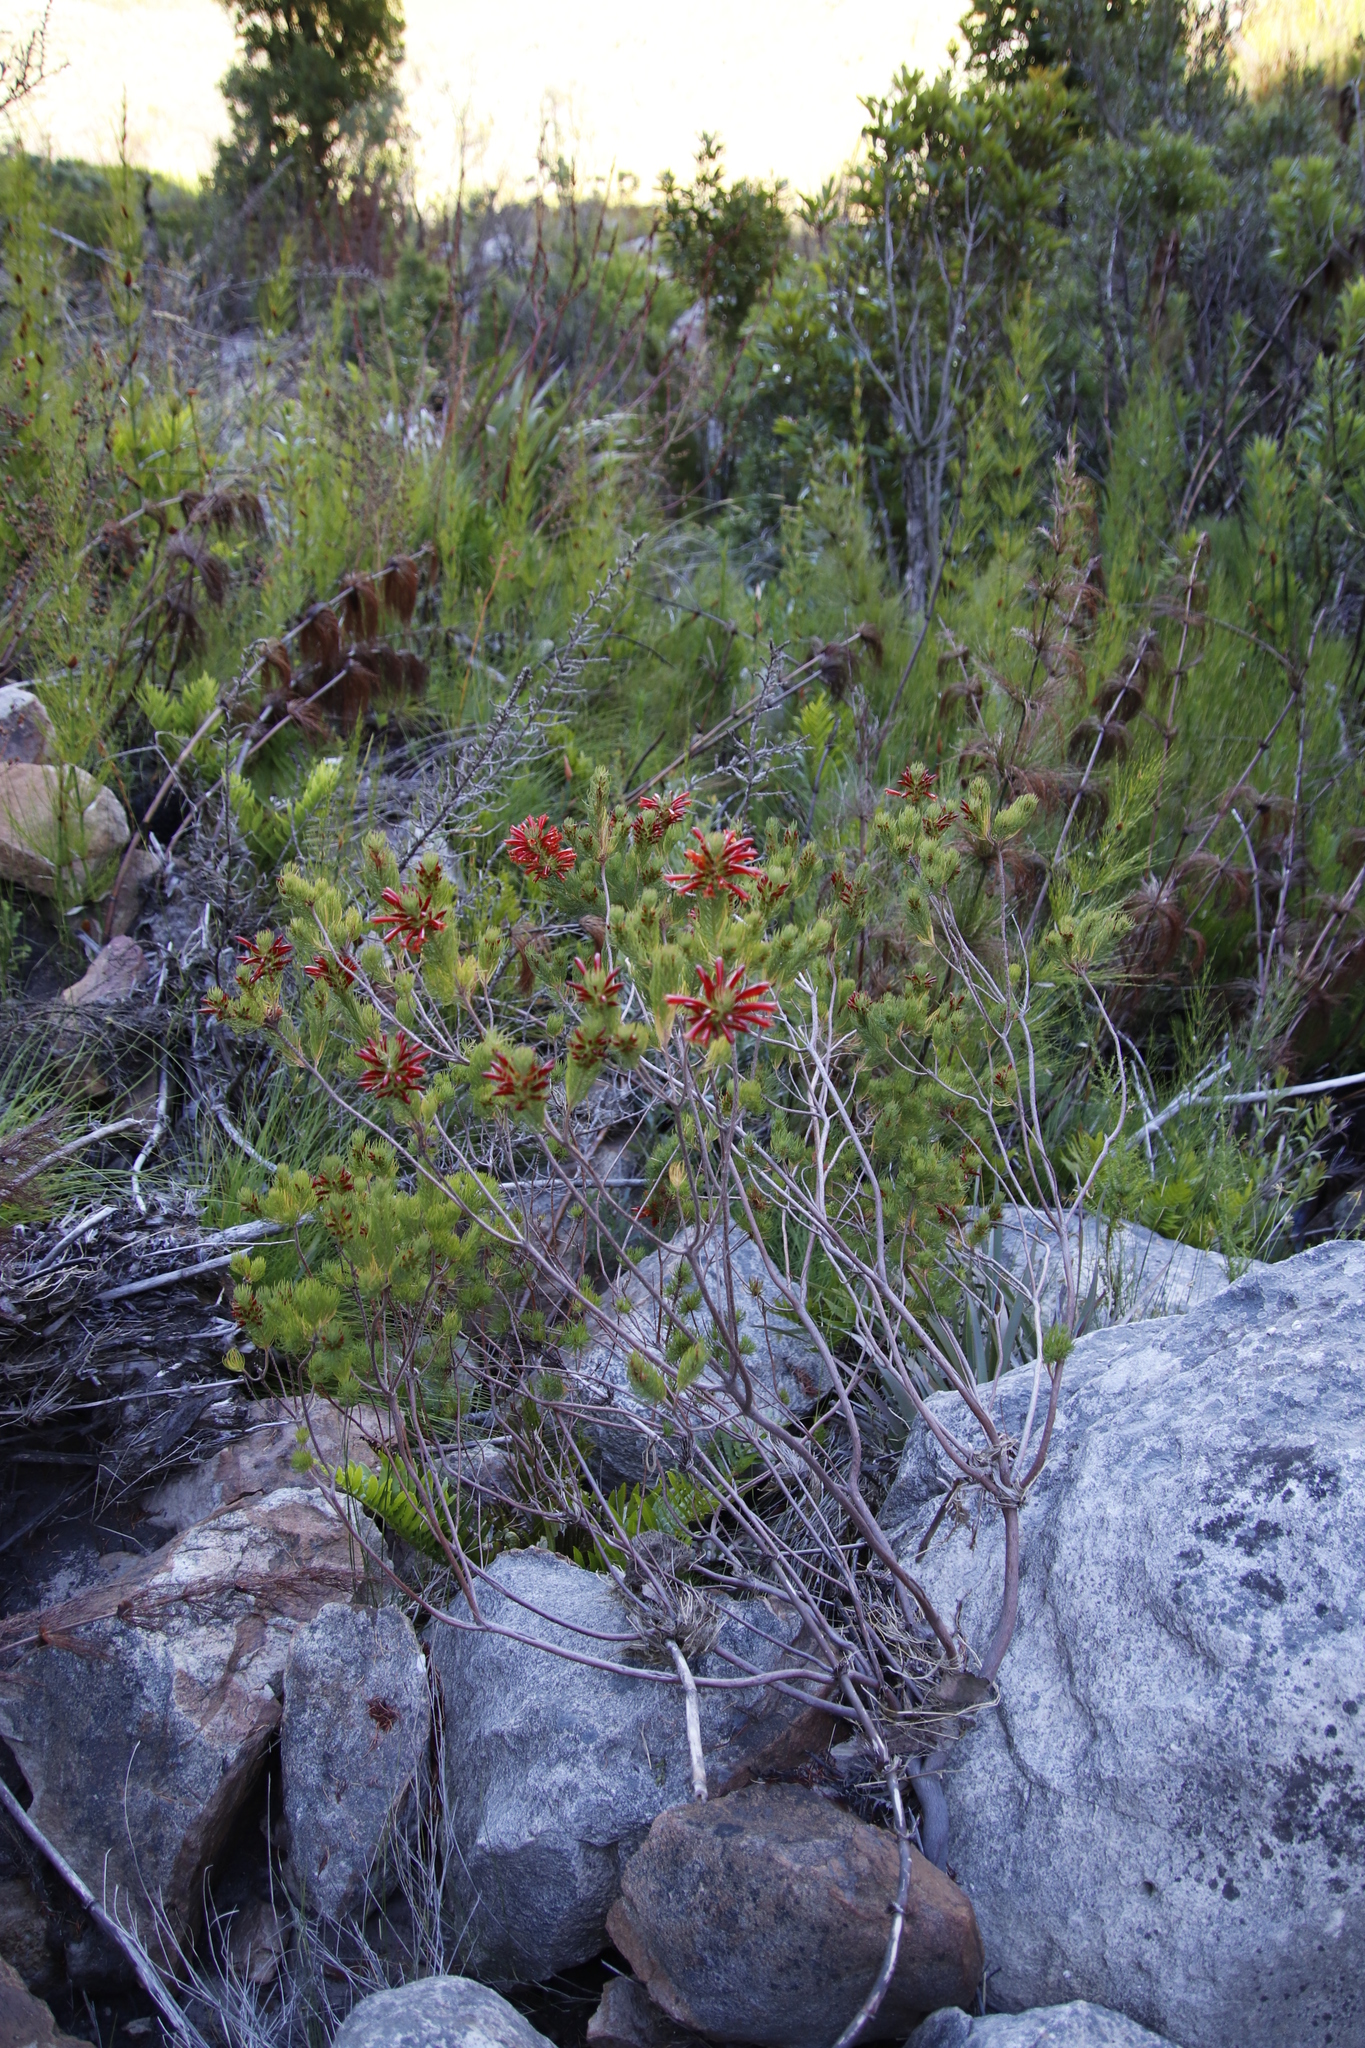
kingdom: Plantae
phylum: Tracheophyta
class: Magnoliopsida
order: Ericales
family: Ericaceae
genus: Erica
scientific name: Erica grandiflora
